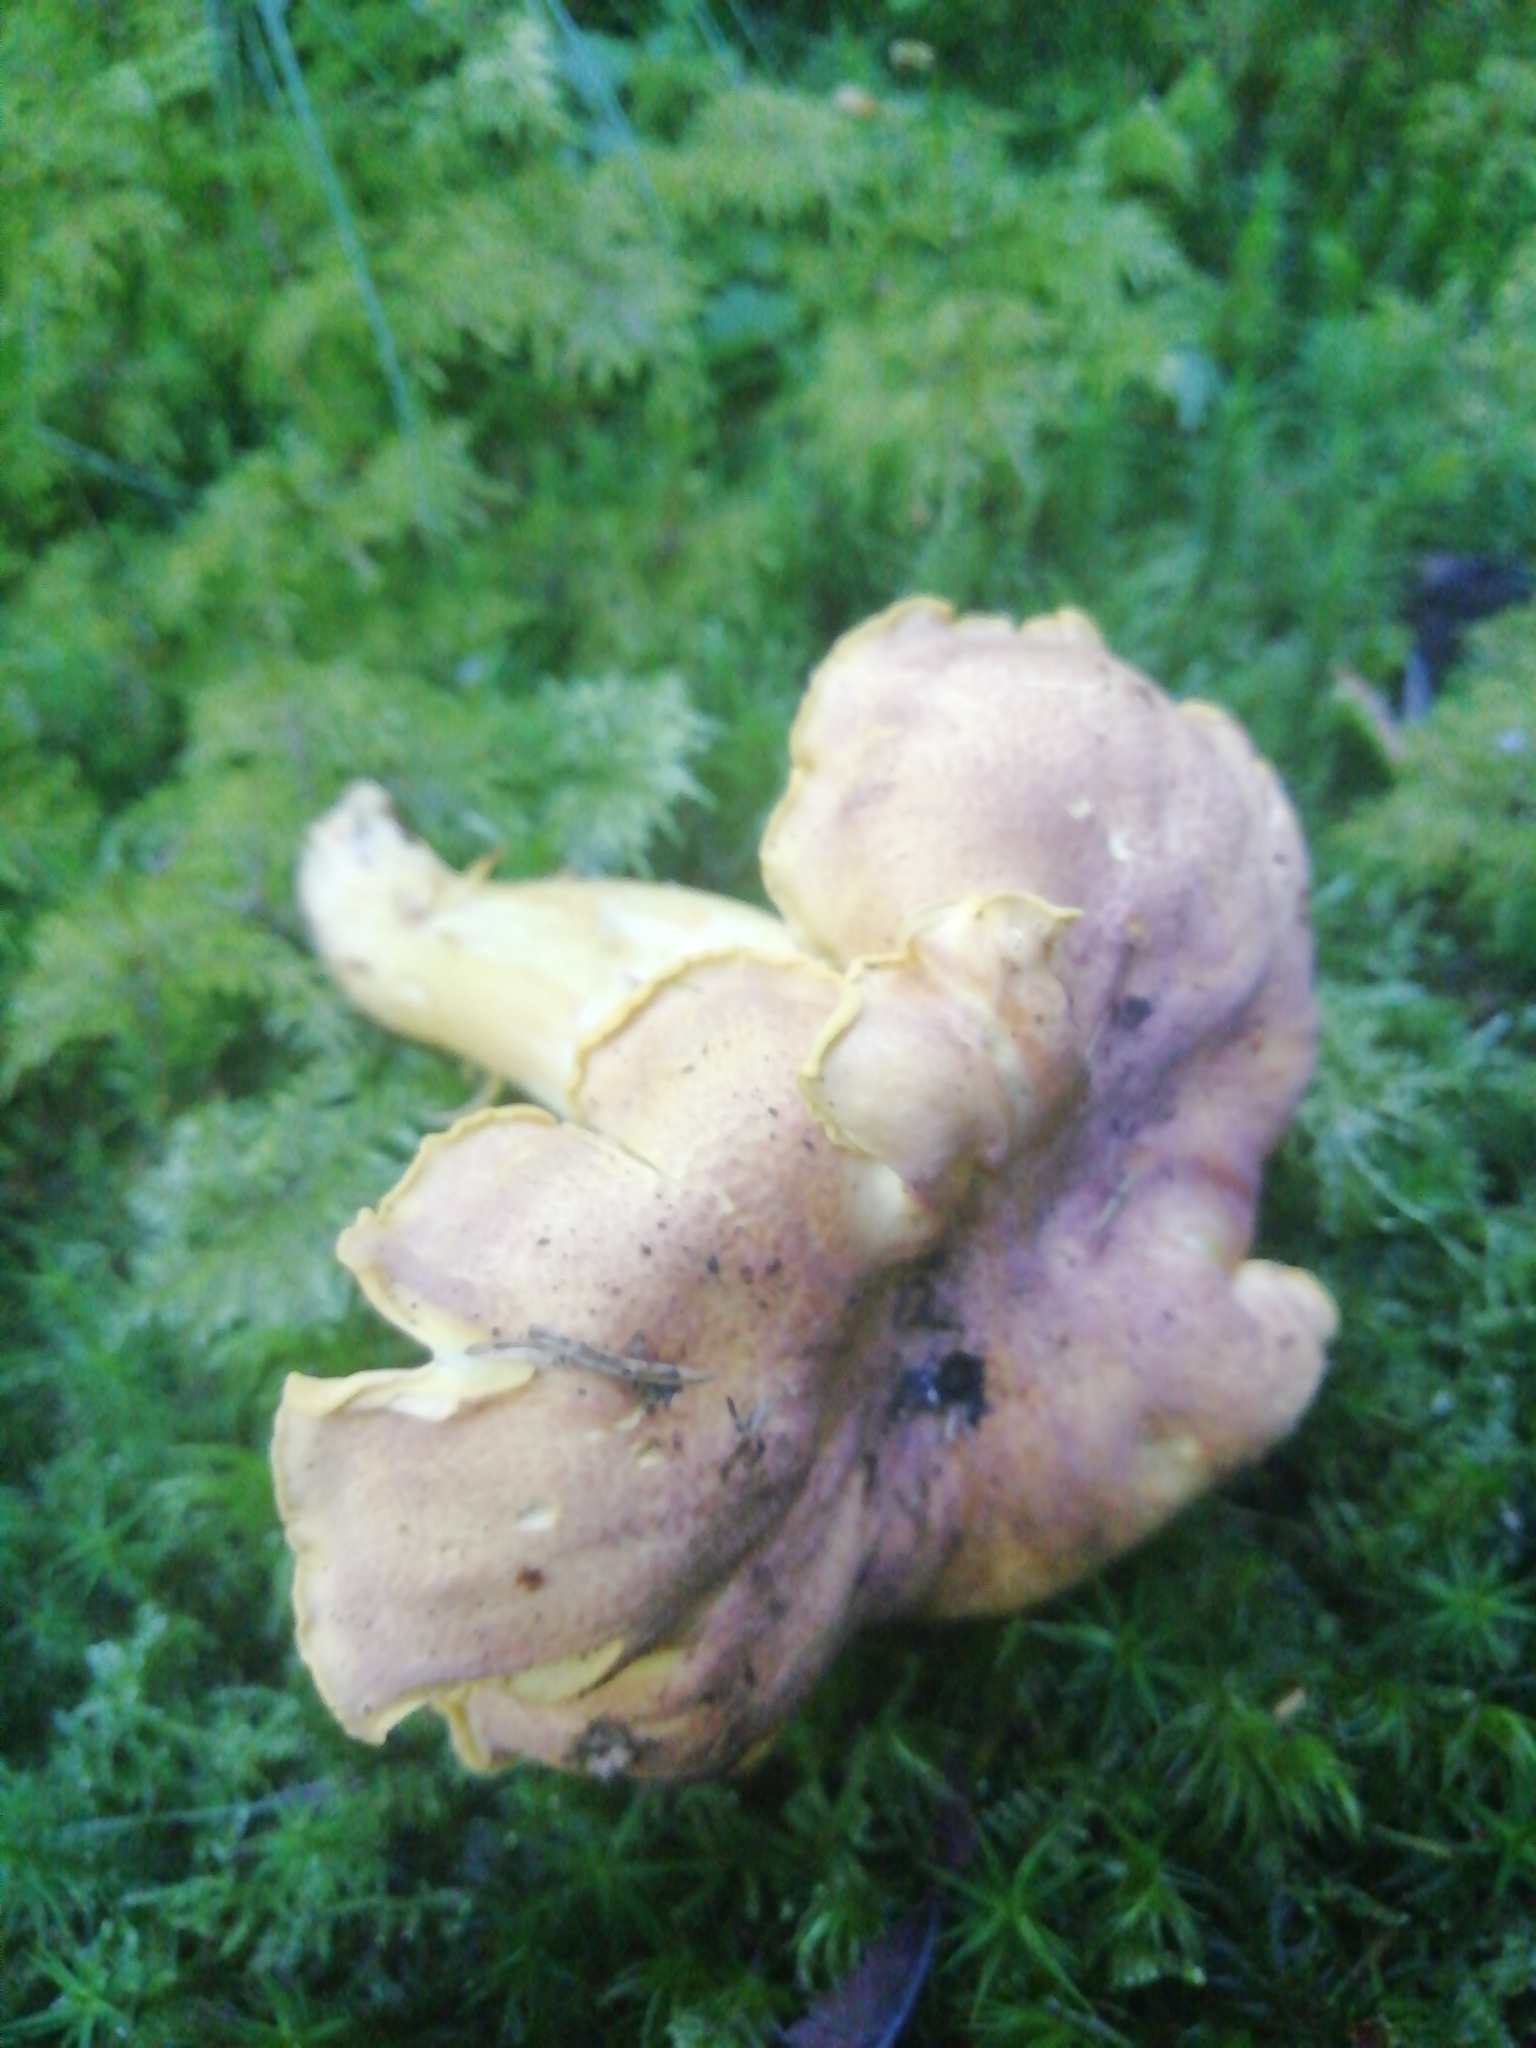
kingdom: Fungi
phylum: Basidiomycota
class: Agaricomycetes
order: Cantharellales
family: Hydnaceae
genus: Cantharellus
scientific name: Cantharellus amethysteus
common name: Amethyst chanterelle
